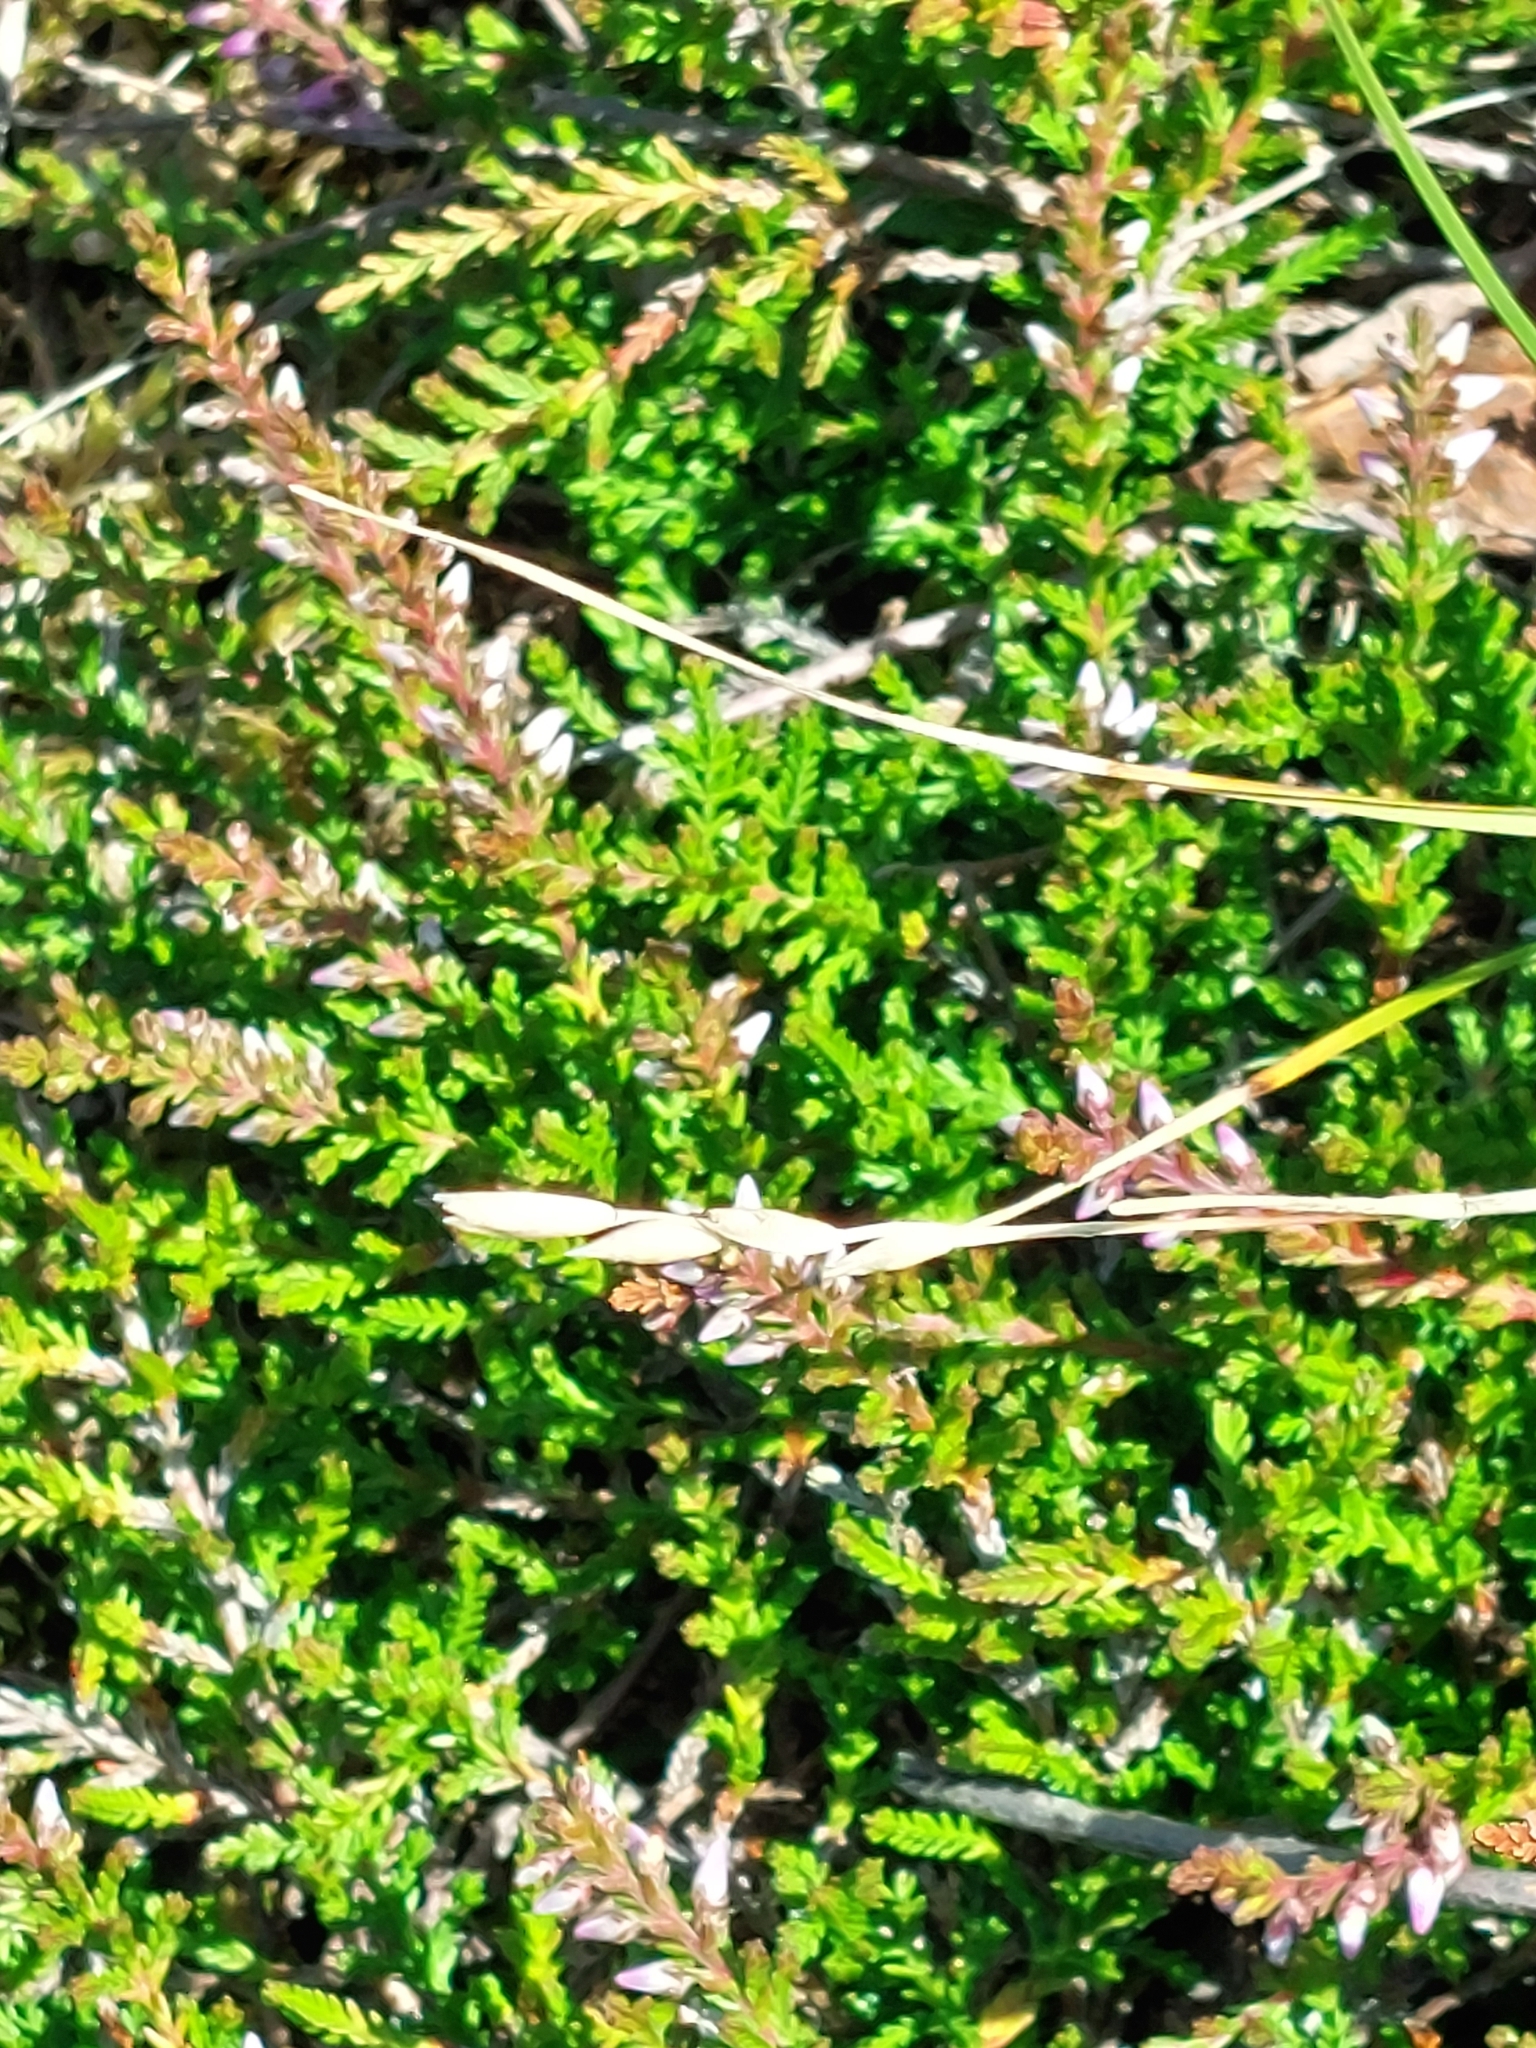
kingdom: Plantae
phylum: Tracheophyta
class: Liliopsida
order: Poales
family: Poaceae
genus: Danthonia
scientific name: Danthonia decumbens
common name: Common heathgrass
